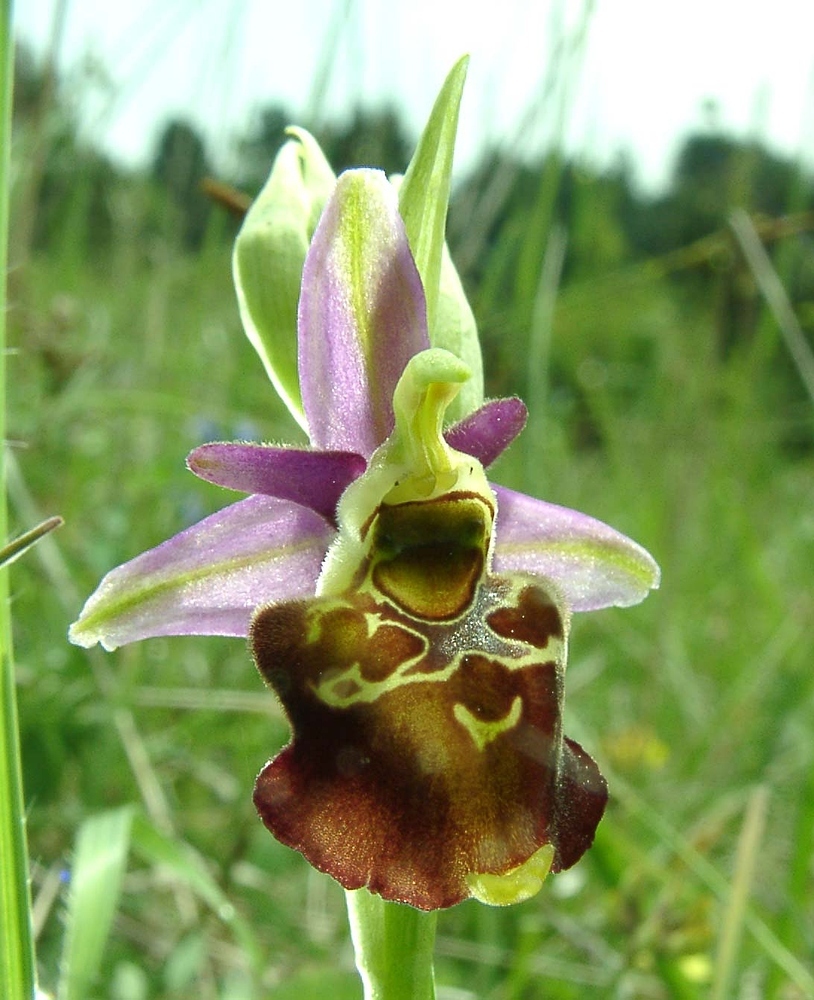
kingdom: Plantae
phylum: Tracheophyta
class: Liliopsida
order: Asparagales
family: Orchidaceae
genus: Ophrys
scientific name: Ophrys holosericea
